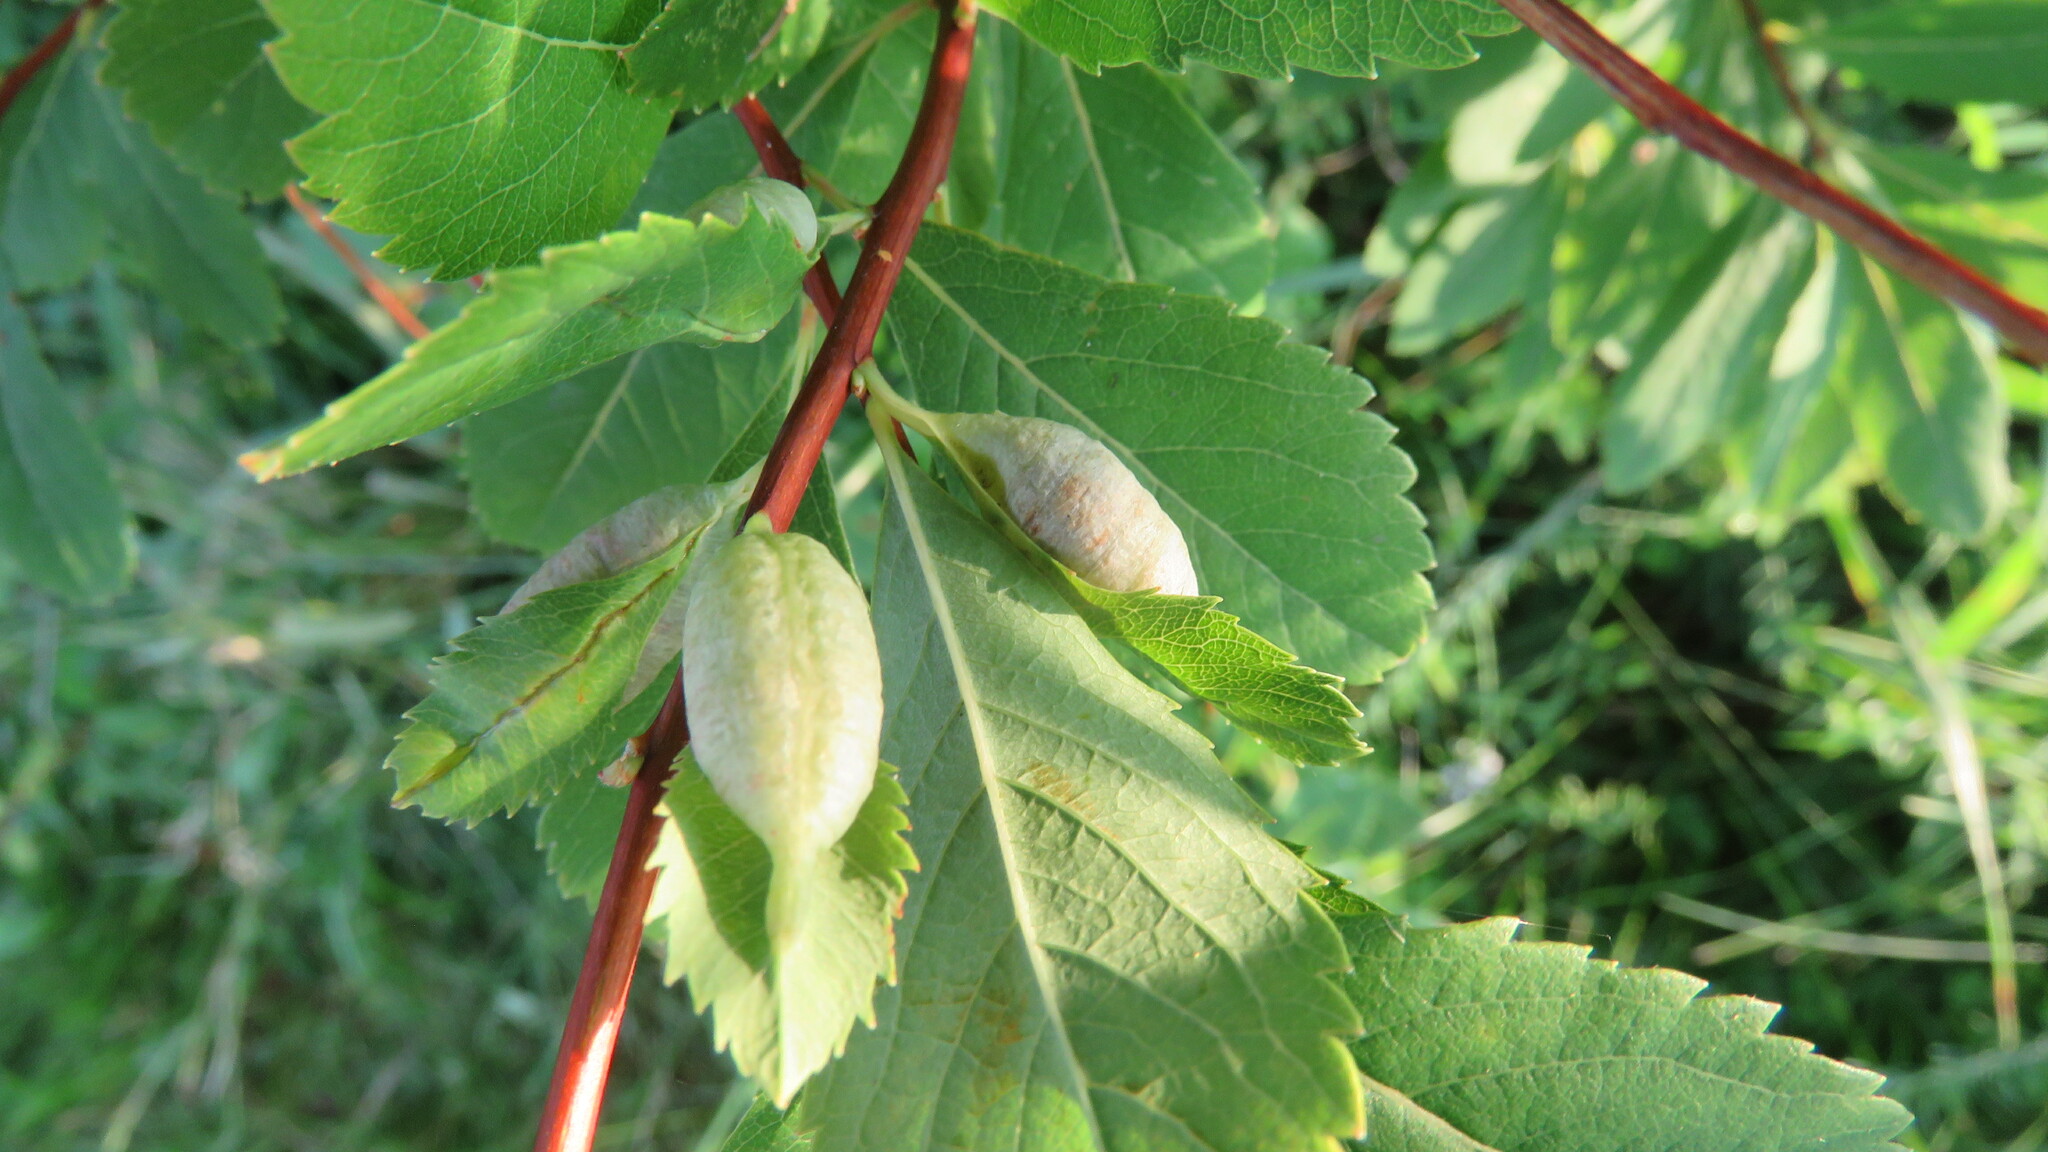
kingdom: Animalia
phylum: Arthropoda
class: Insecta
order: Diptera
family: Cecidomyiidae
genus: Dasineura
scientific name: Dasineura salicifoliae
